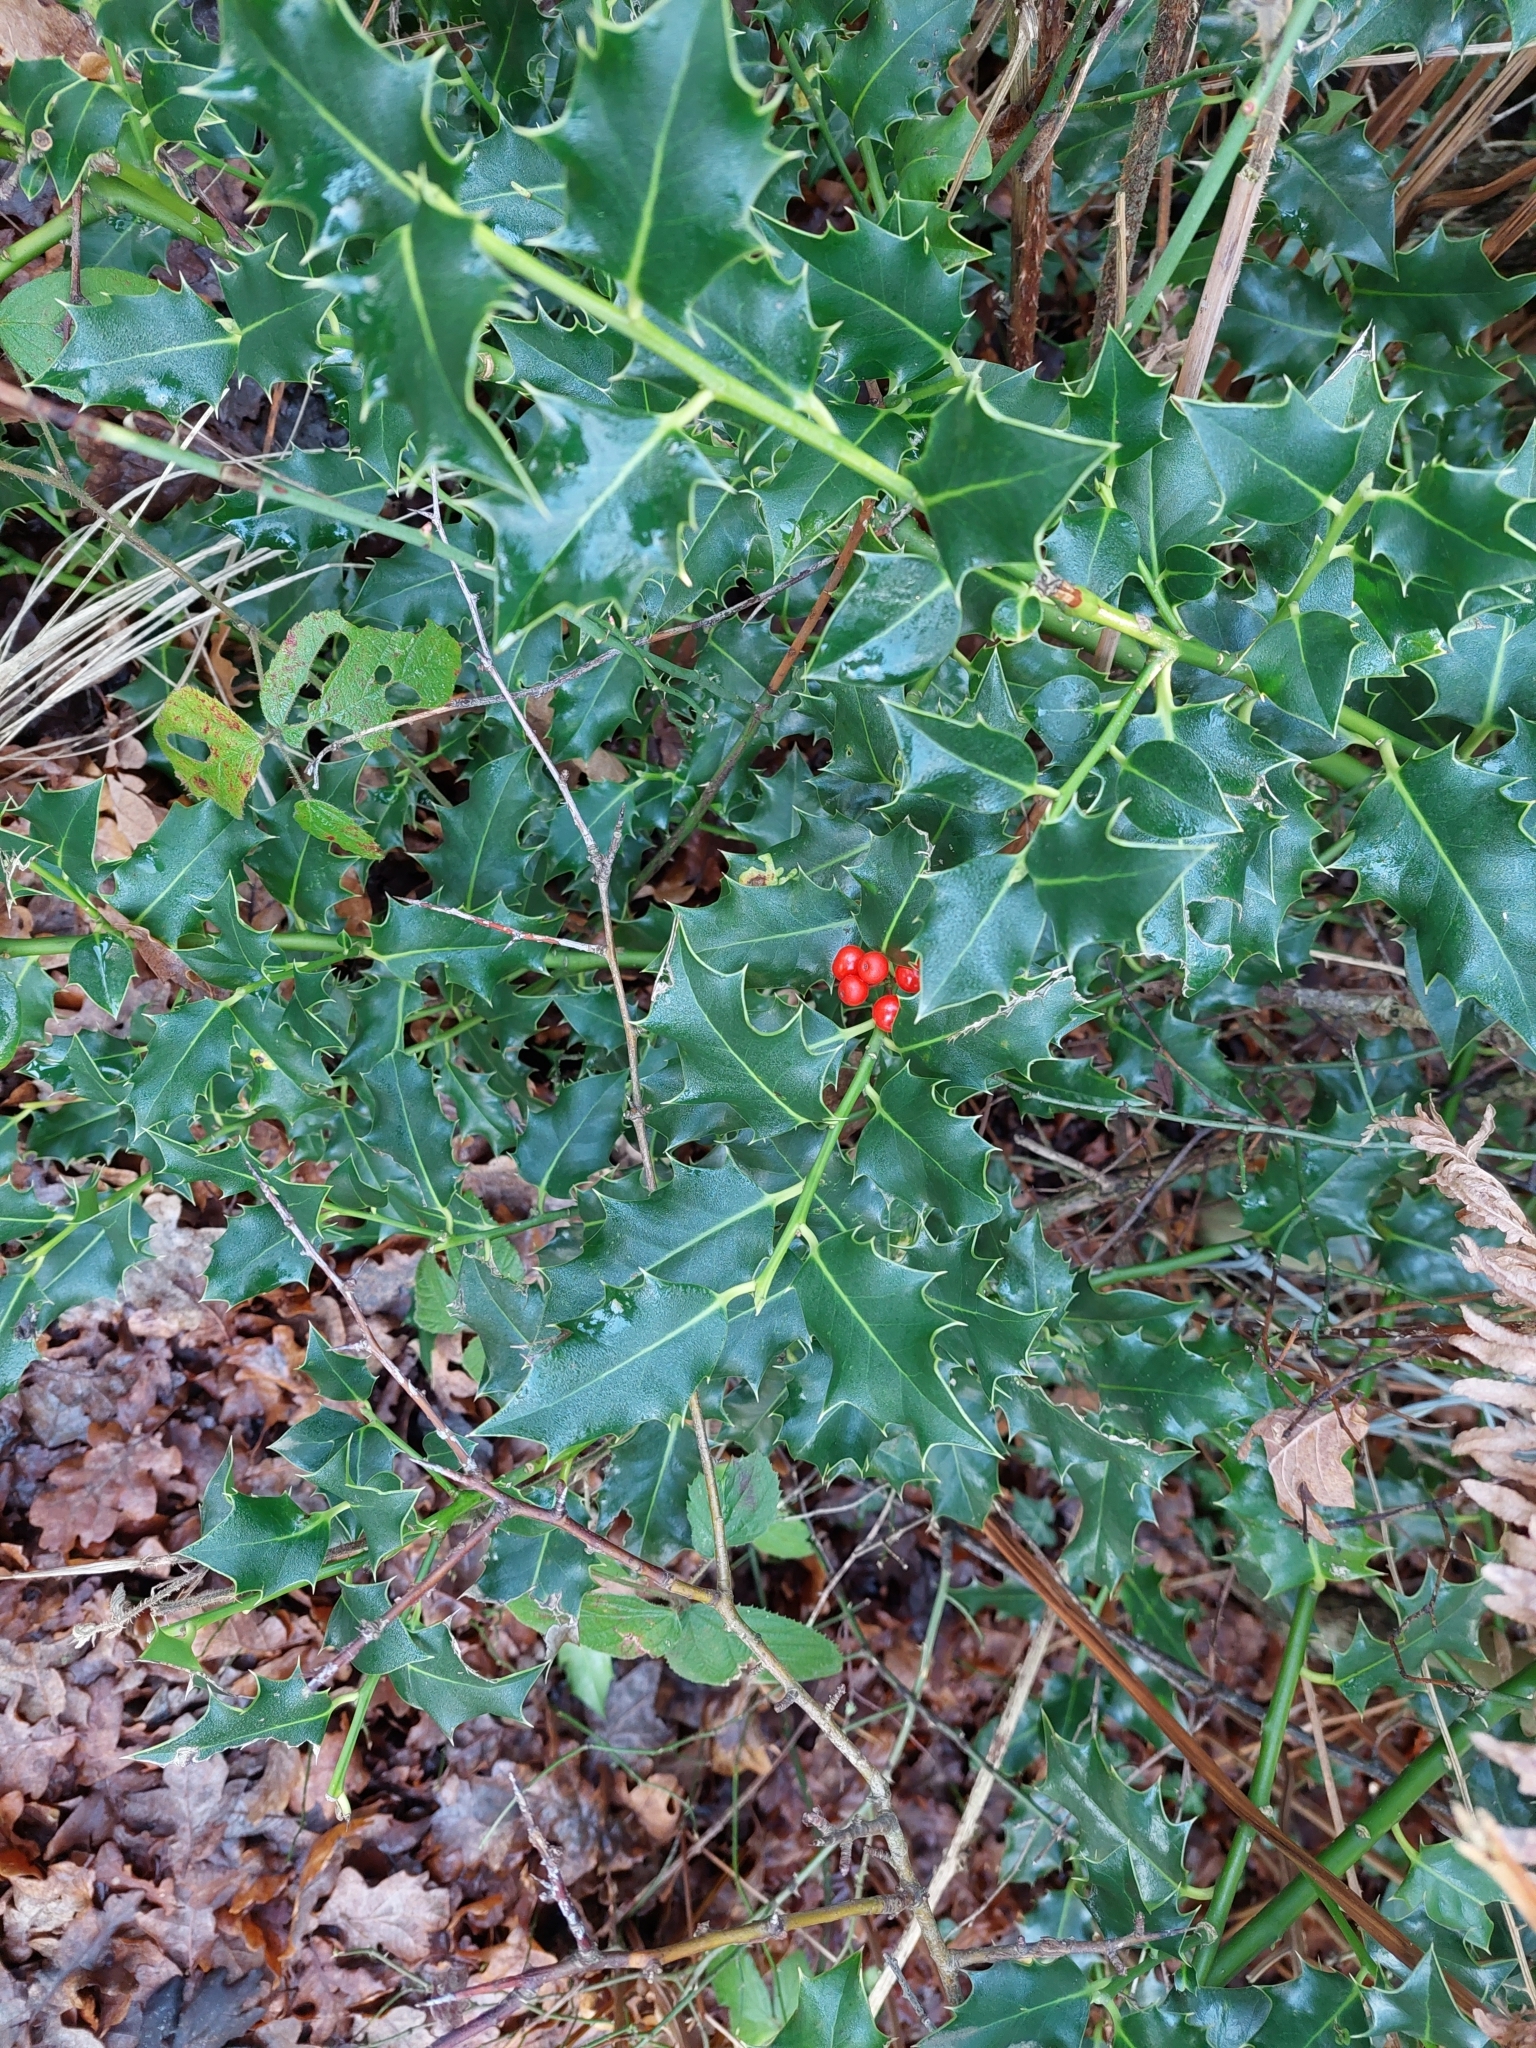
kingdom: Plantae
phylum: Tracheophyta
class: Magnoliopsida
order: Aquifoliales
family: Aquifoliaceae
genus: Ilex
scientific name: Ilex aquifolium
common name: English holly
